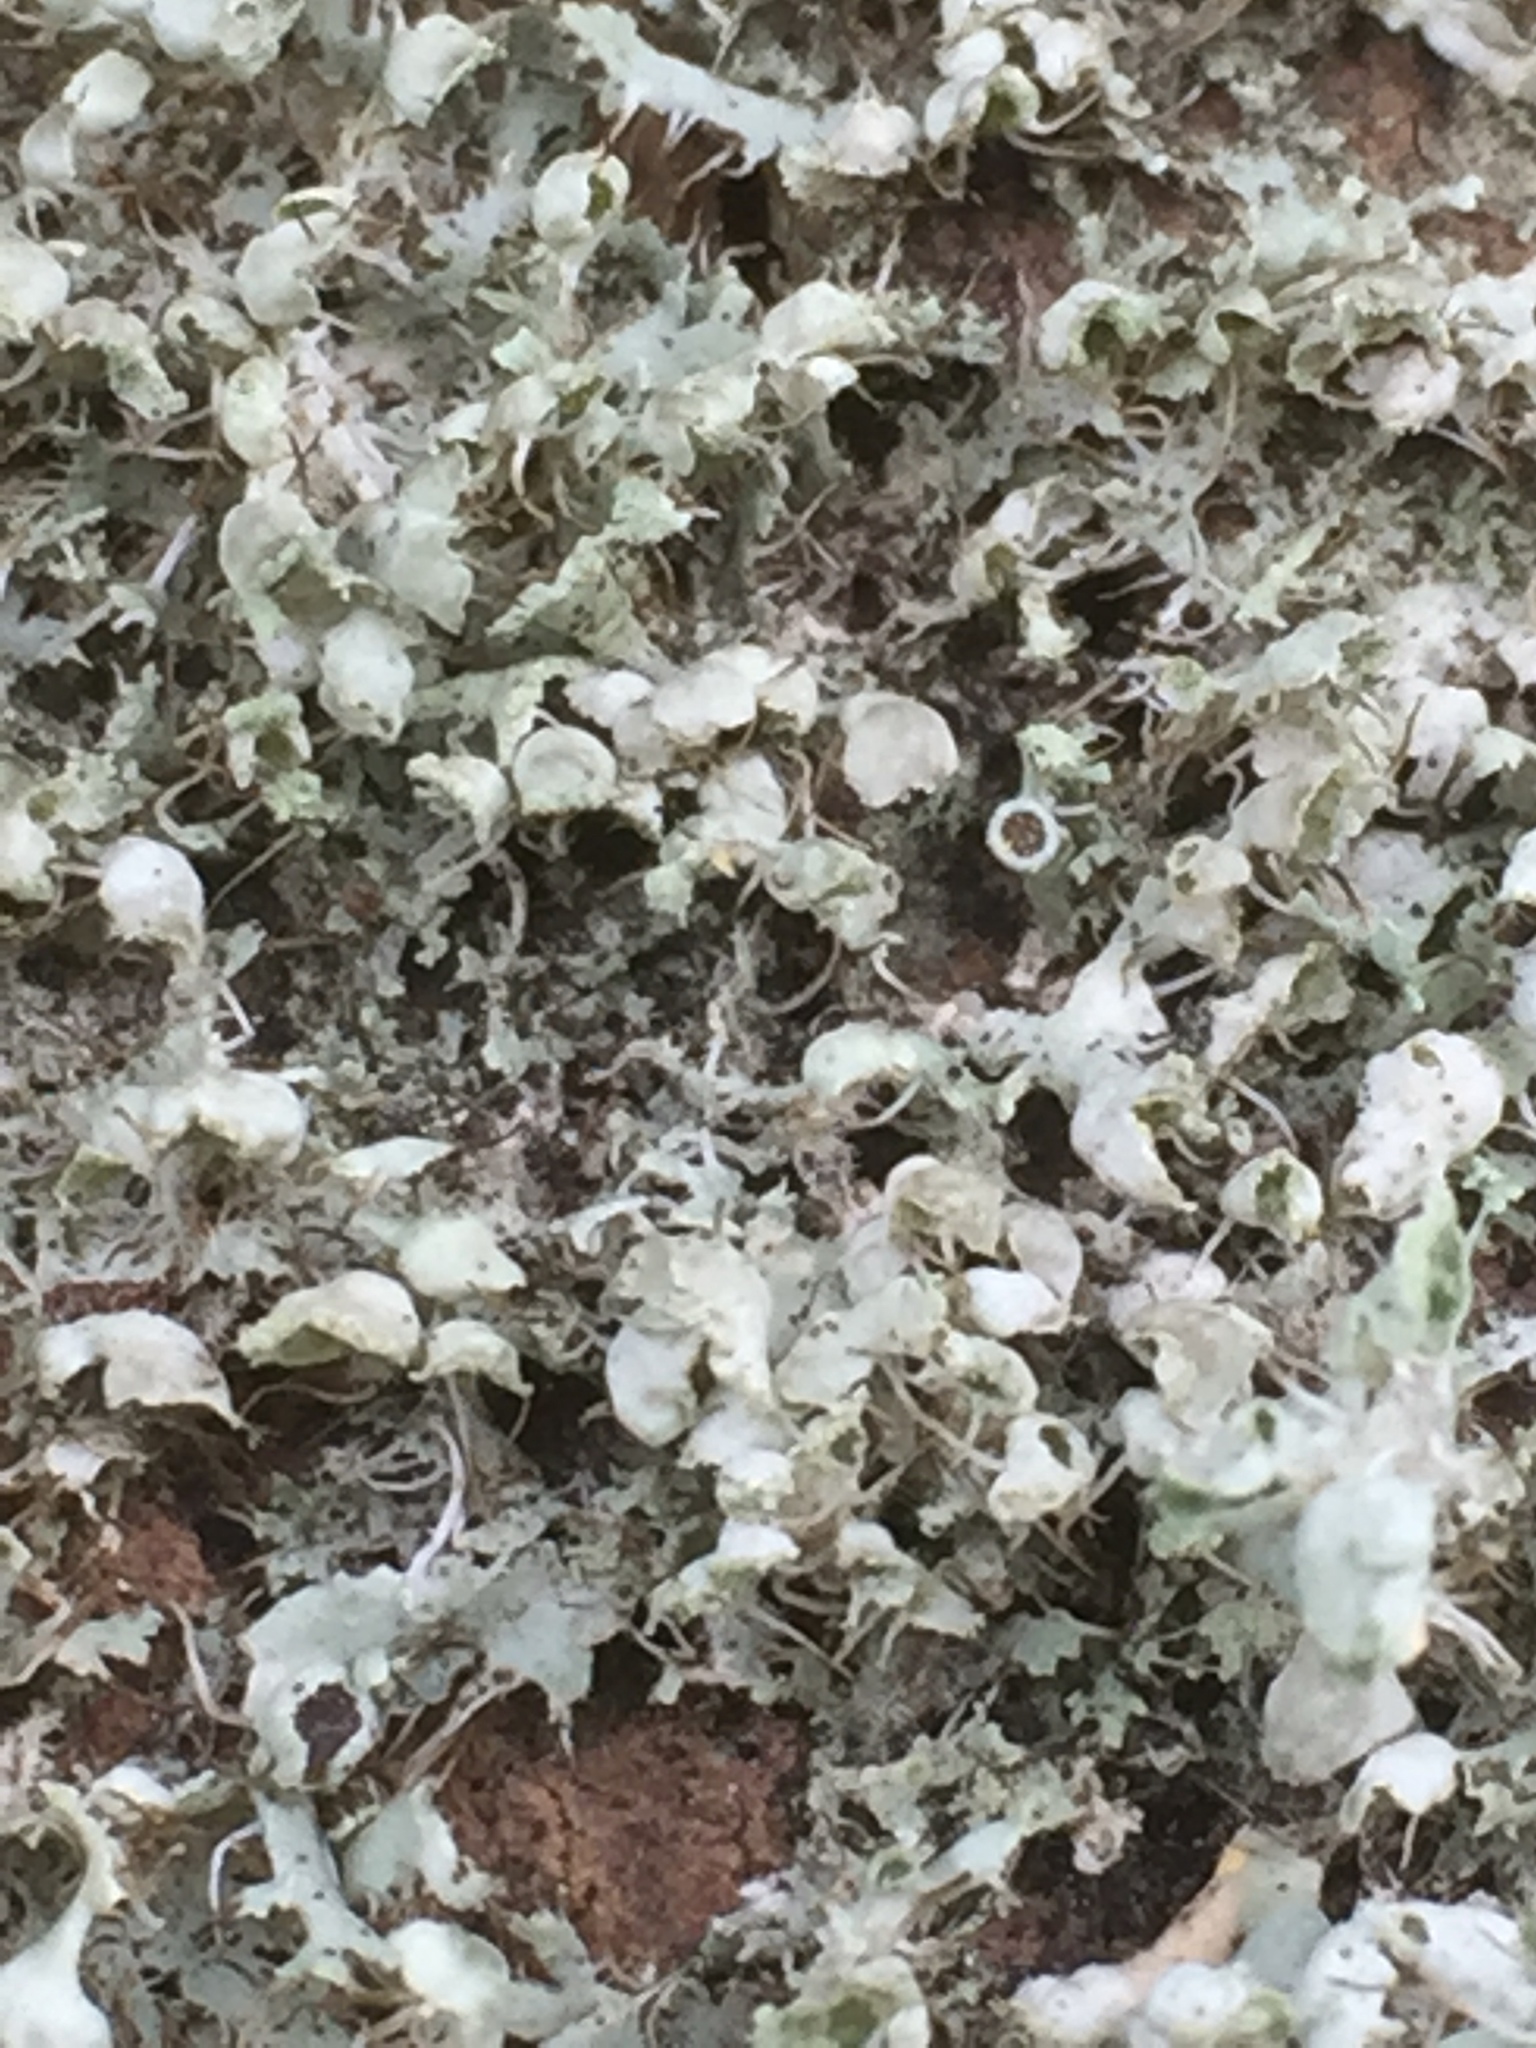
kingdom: Fungi
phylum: Ascomycota
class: Lecanoromycetes
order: Caliciales
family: Physciaceae
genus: Physcia
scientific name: Physcia adscendens
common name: Hooded rosette lichen
